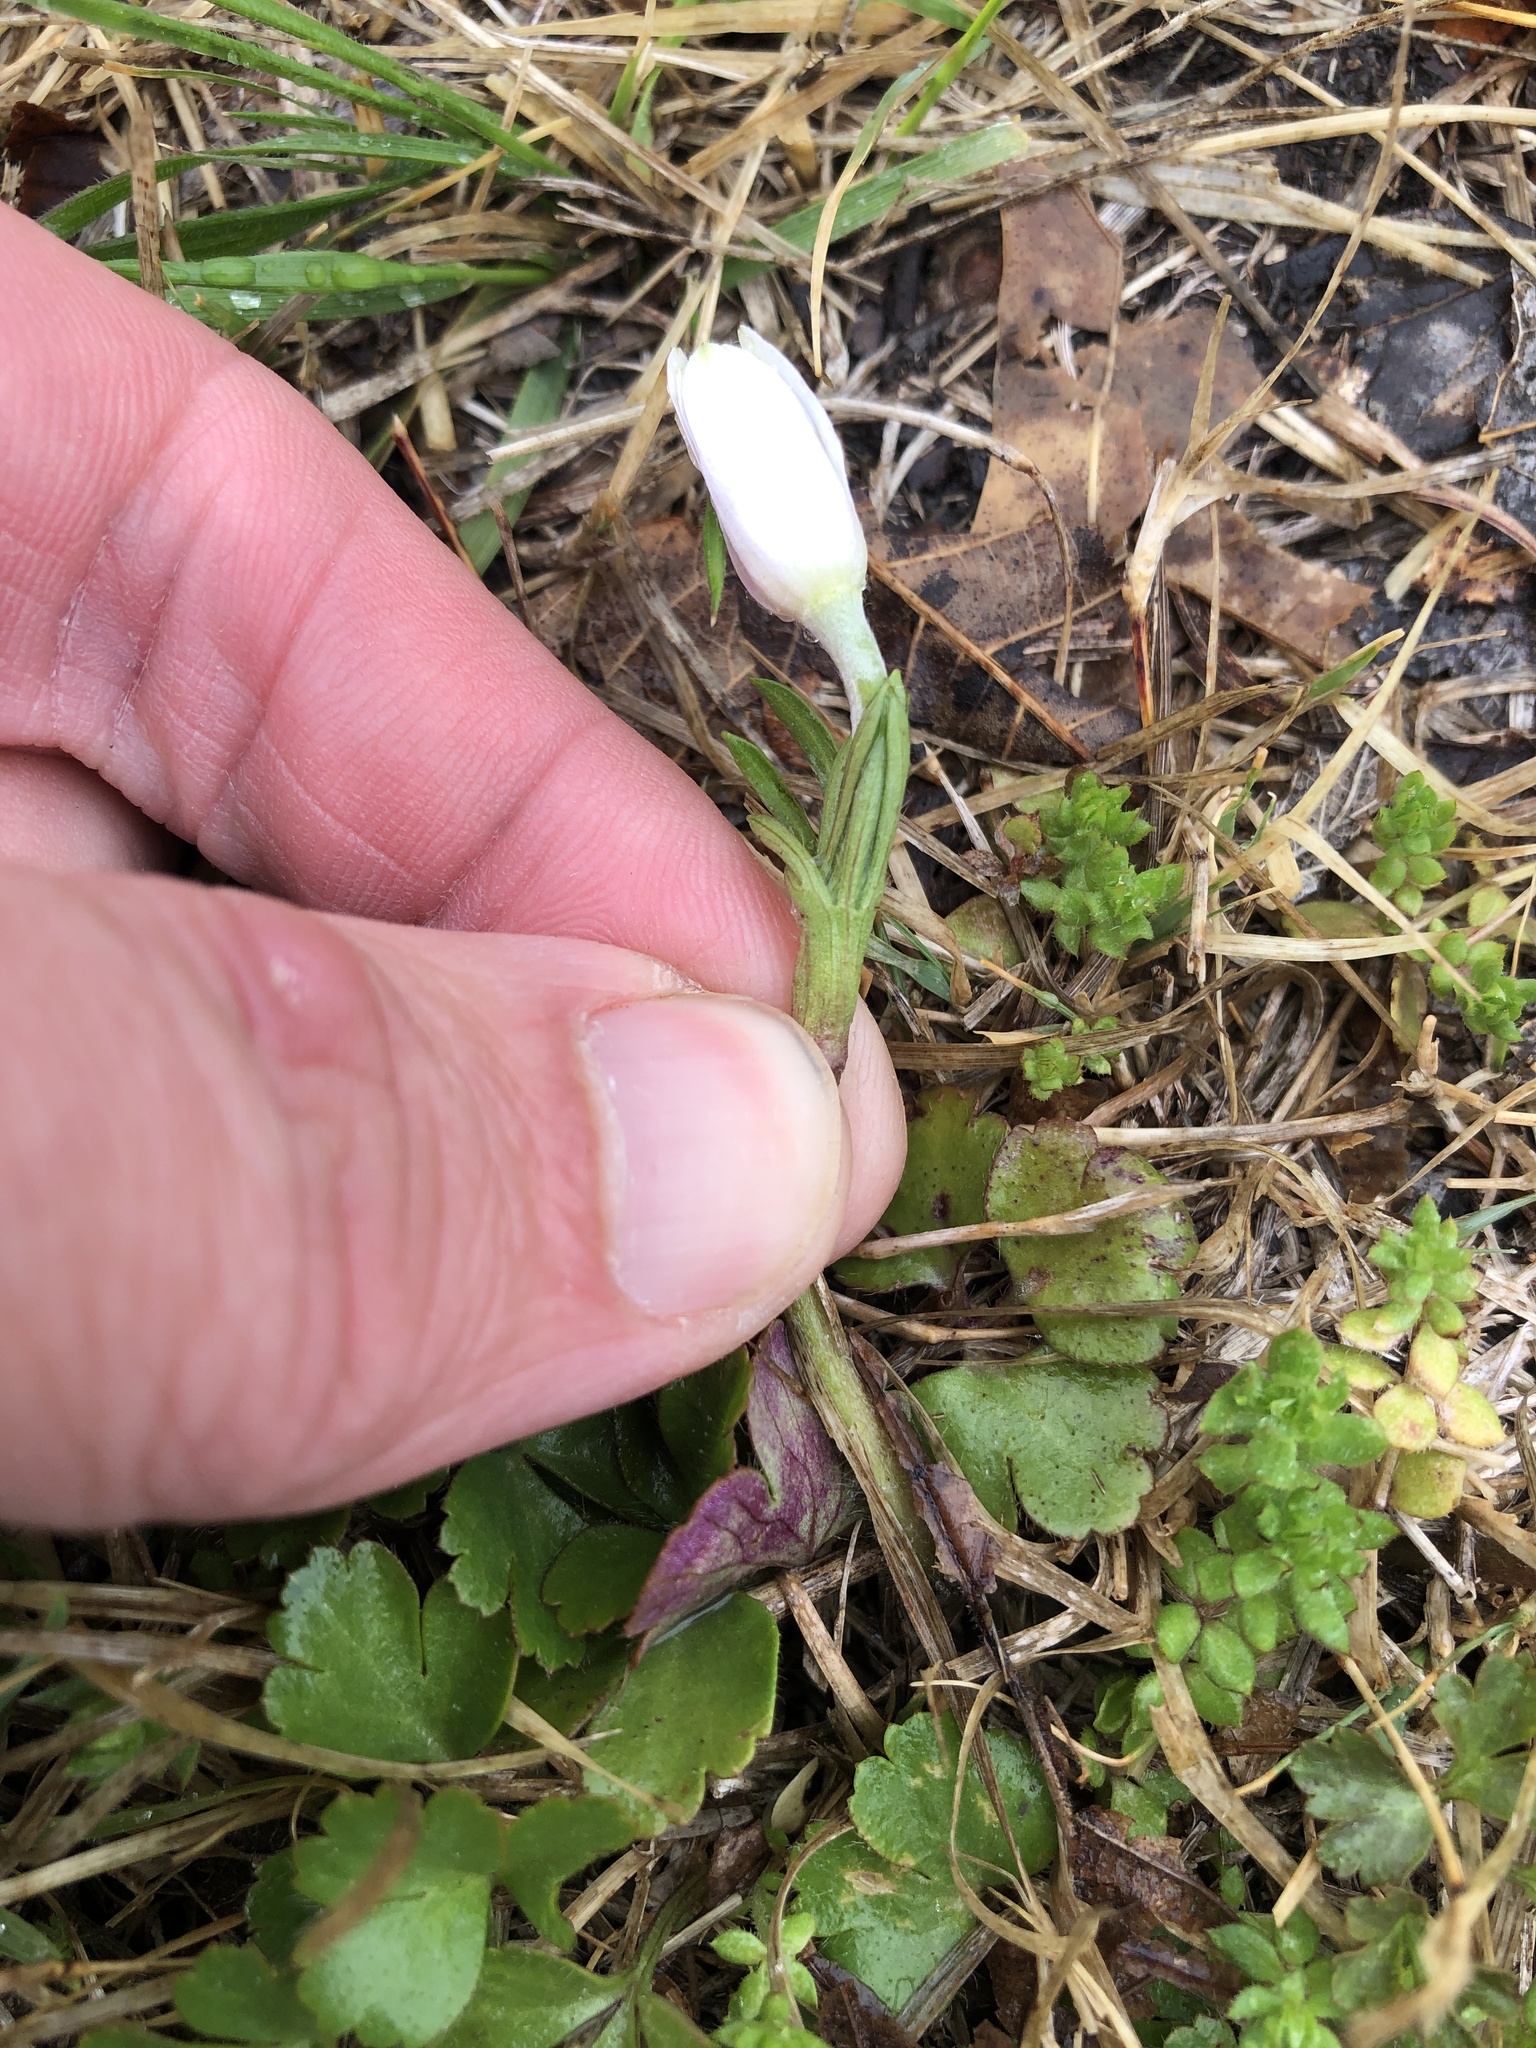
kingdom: Plantae
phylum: Tracheophyta
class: Magnoliopsida
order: Ranunculales
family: Ranunculaceae
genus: Anemone
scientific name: Anemone berlandieri
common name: Ten-petal anemone
